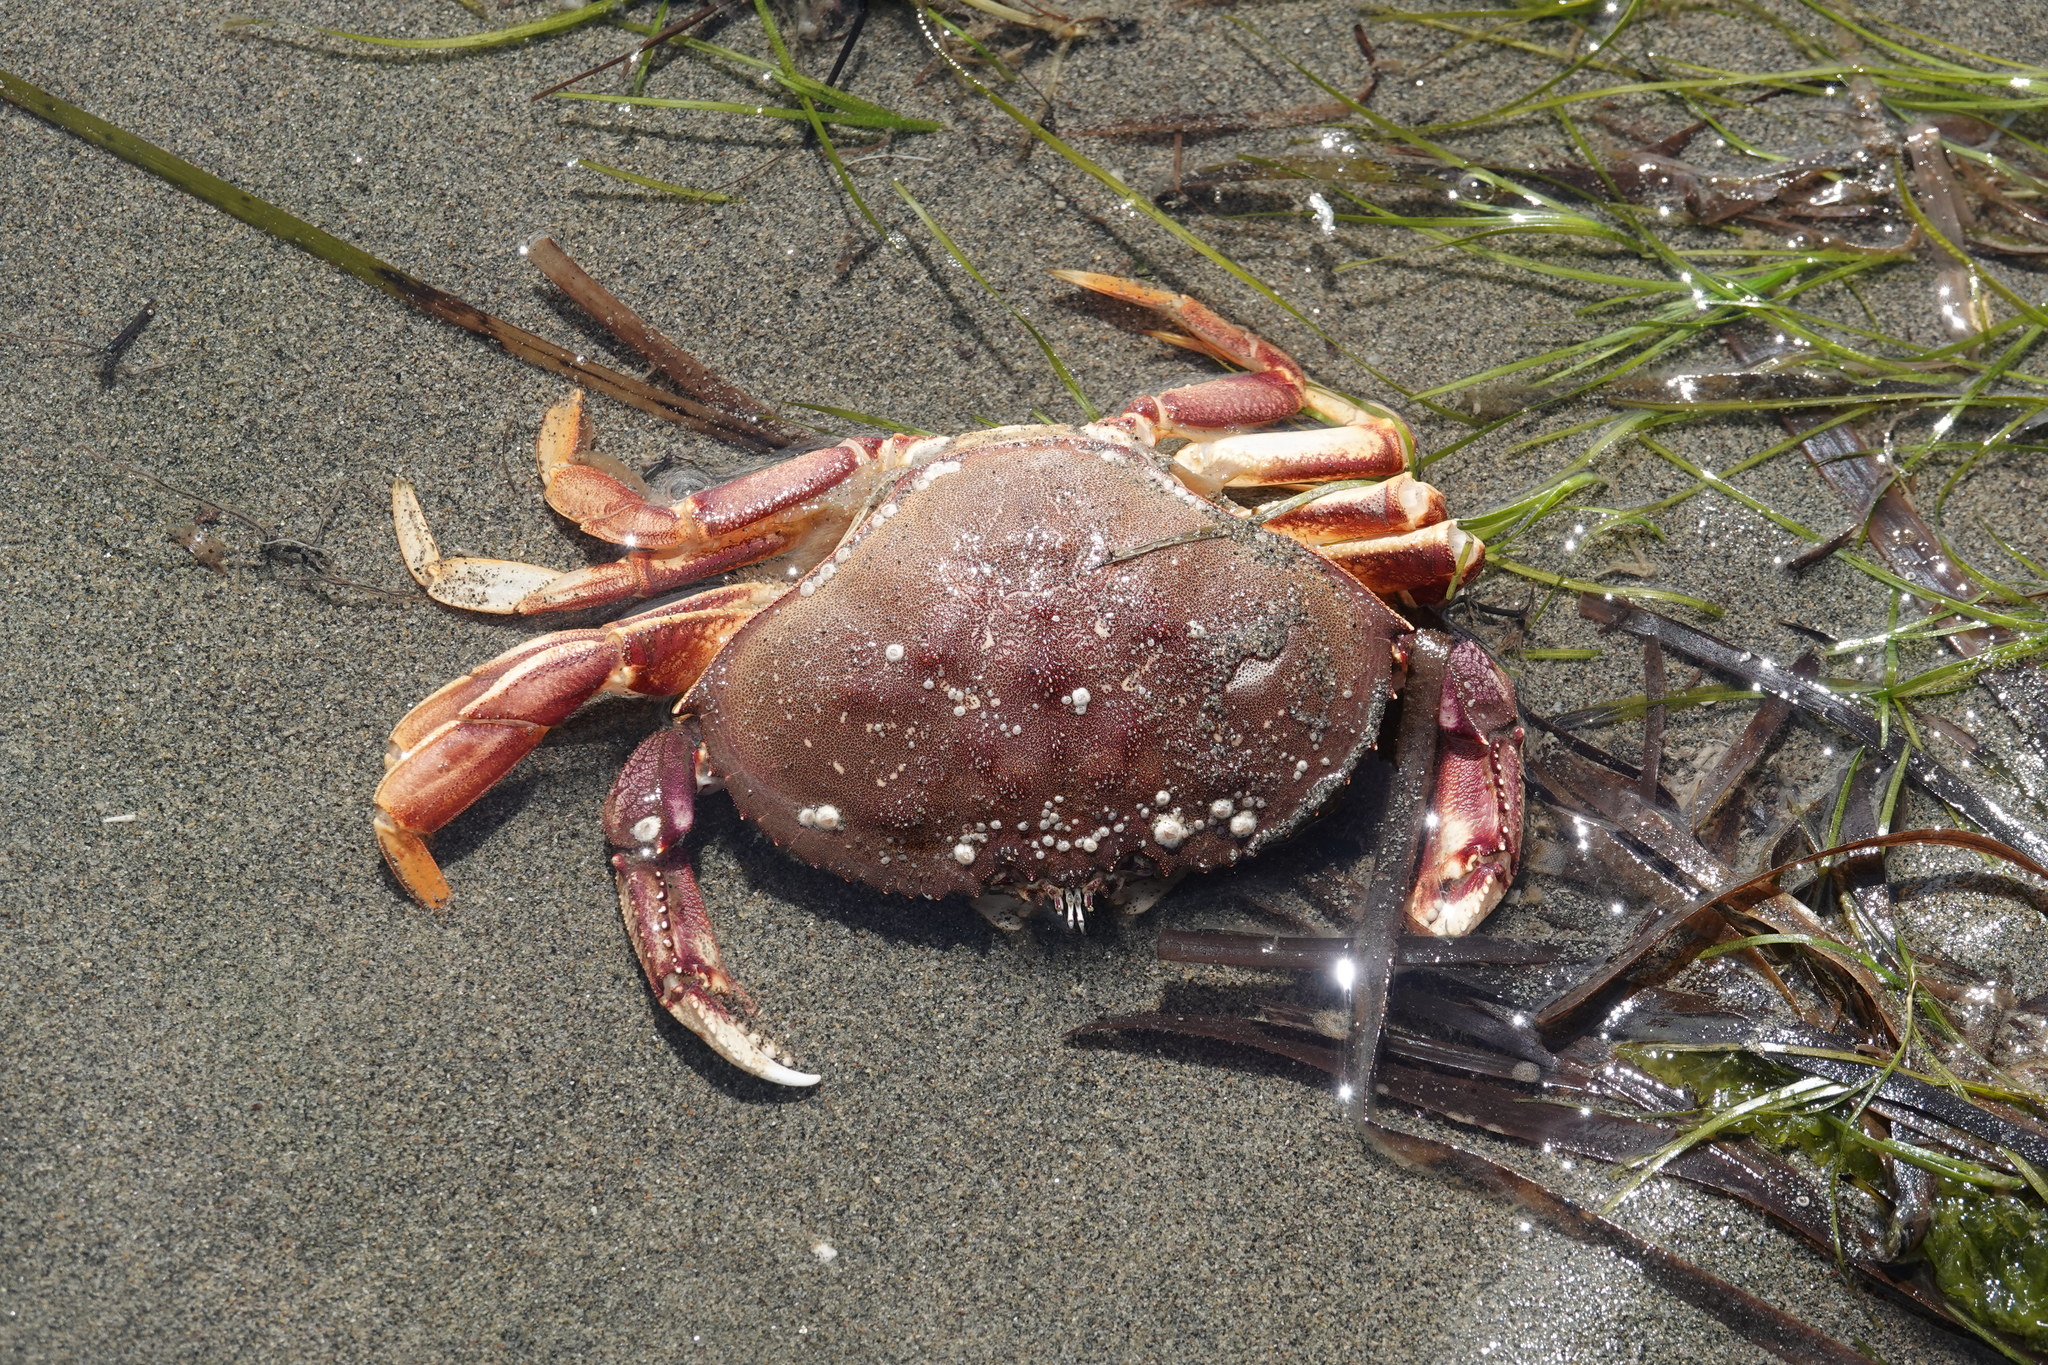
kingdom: Animalia
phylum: Arthropoda
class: Malacostraca
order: Decapoda
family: Cancridae
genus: Metacarcinus
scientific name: Metacarcinus magister
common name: Californian crab
